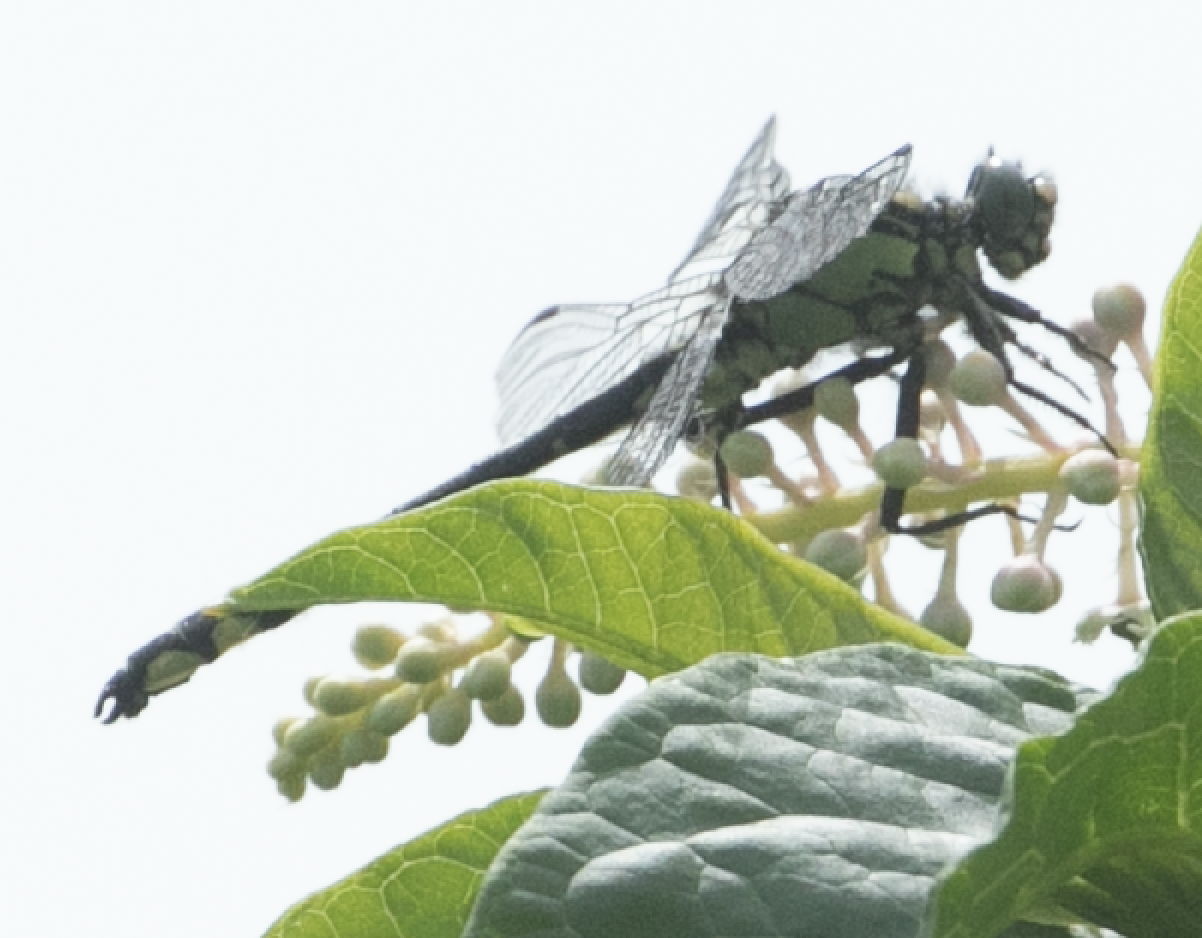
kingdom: Animalia
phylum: Arthropoda
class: Insecta
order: Odonata
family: Gomphidae
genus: Gomphus
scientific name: Gomphus vulgatissimus
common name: Club-tailed dragonfly
